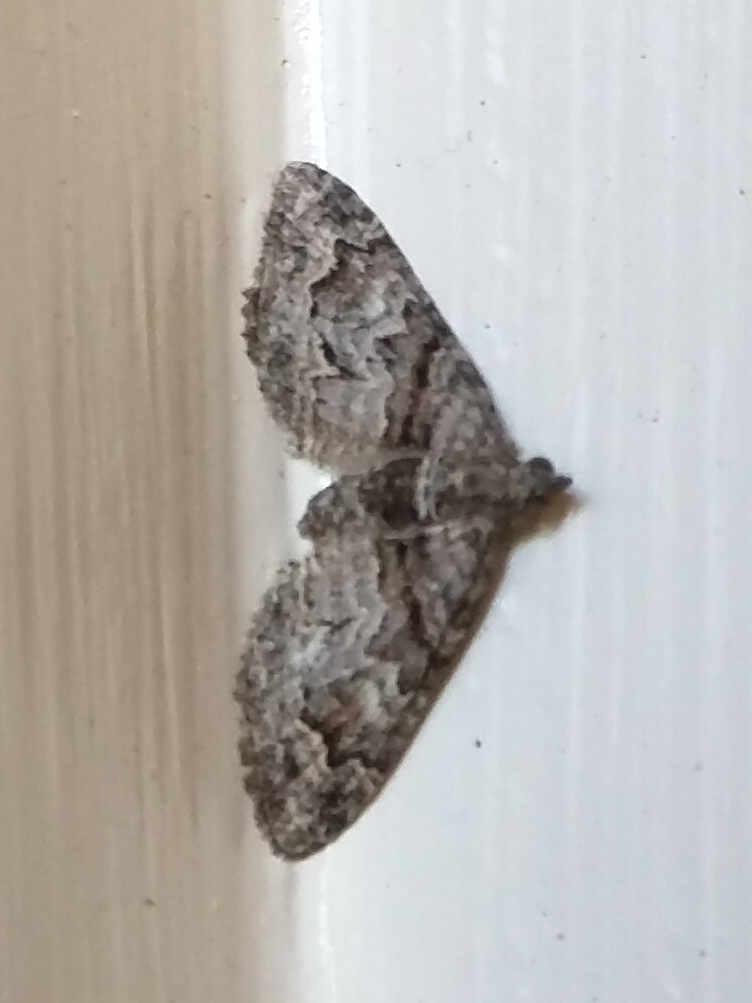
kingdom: Animalia
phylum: Arthropoda
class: Insecta
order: Lepidoptera
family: Geometridae
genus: Phrissogonus
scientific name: Phrissogonus laticostata
